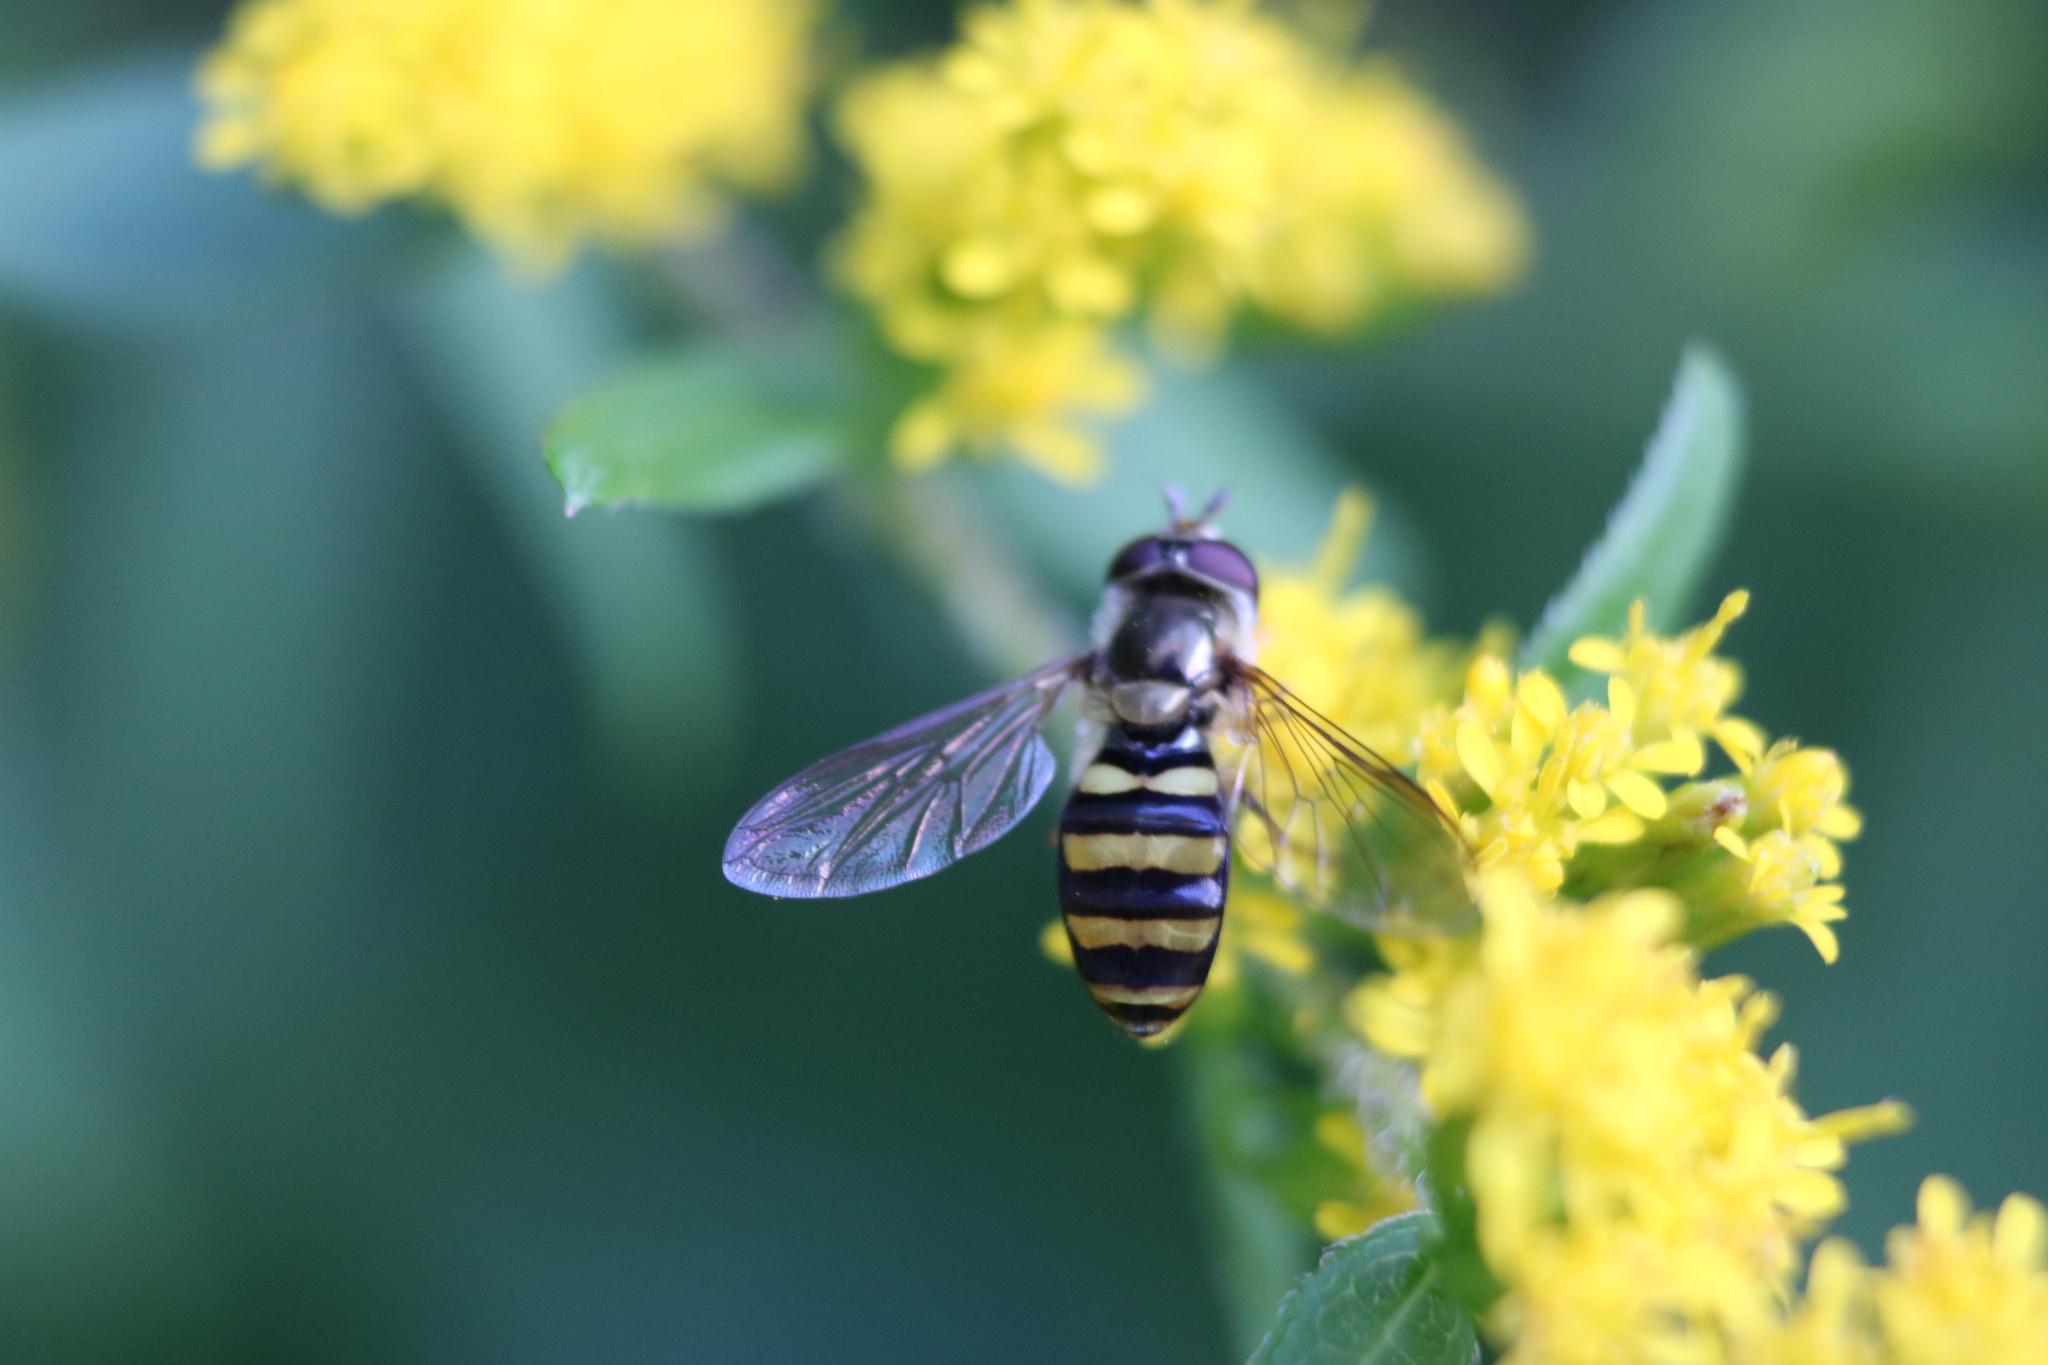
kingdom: Animalia
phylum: Arthropoda
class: Insecta
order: Diptera
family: Syrphidae
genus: Eupeodes
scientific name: Eupeodes
